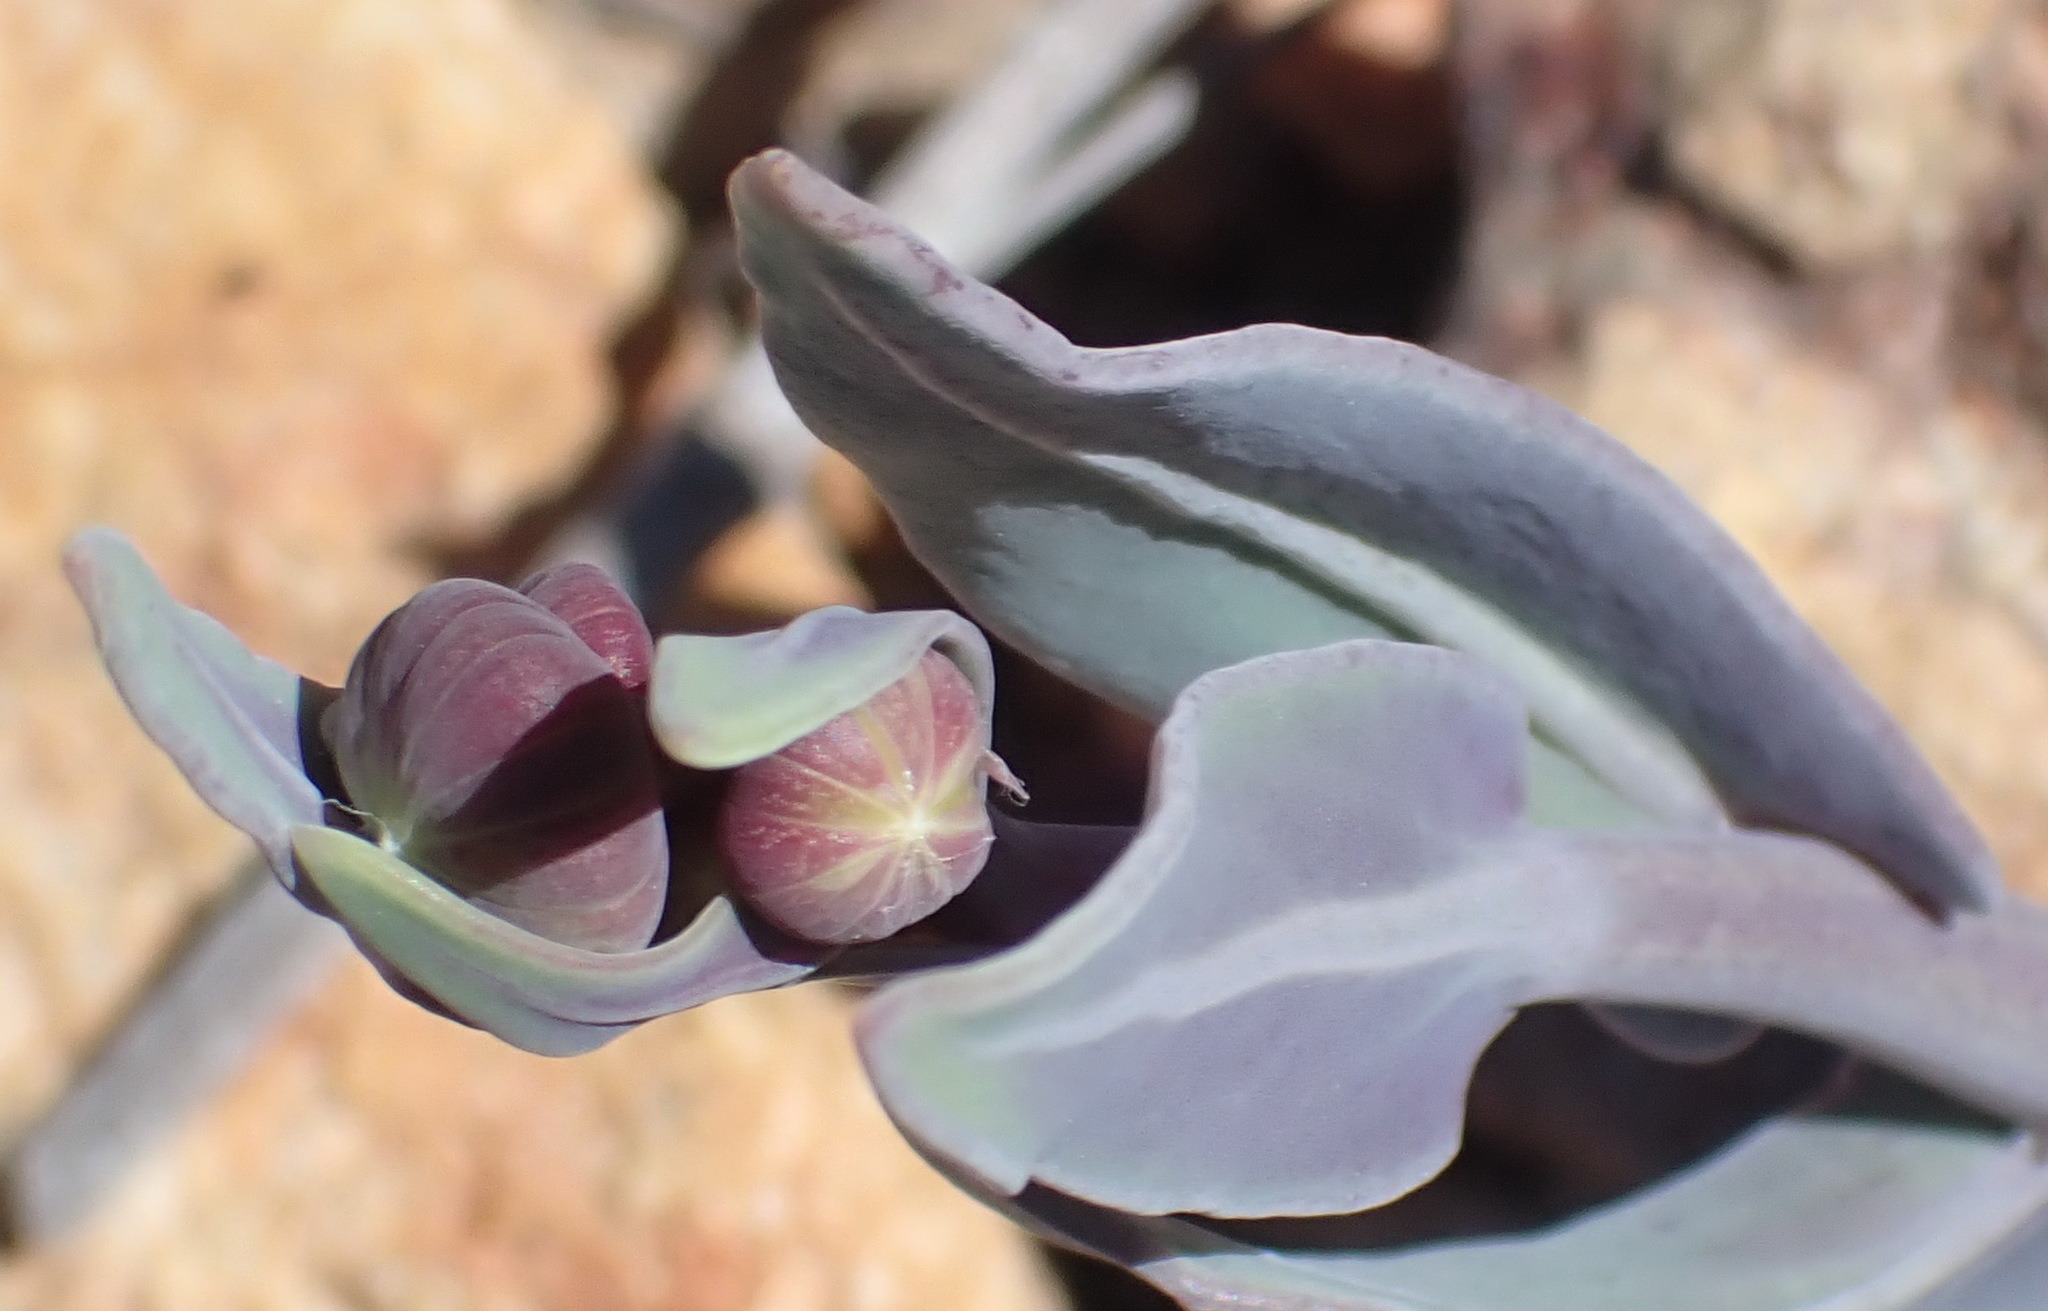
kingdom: Plantae
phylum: Tracheophyta
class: Magnoliopsida
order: Asterales
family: Asteraceae
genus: Othonna
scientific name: Othonna gymnodiscus
